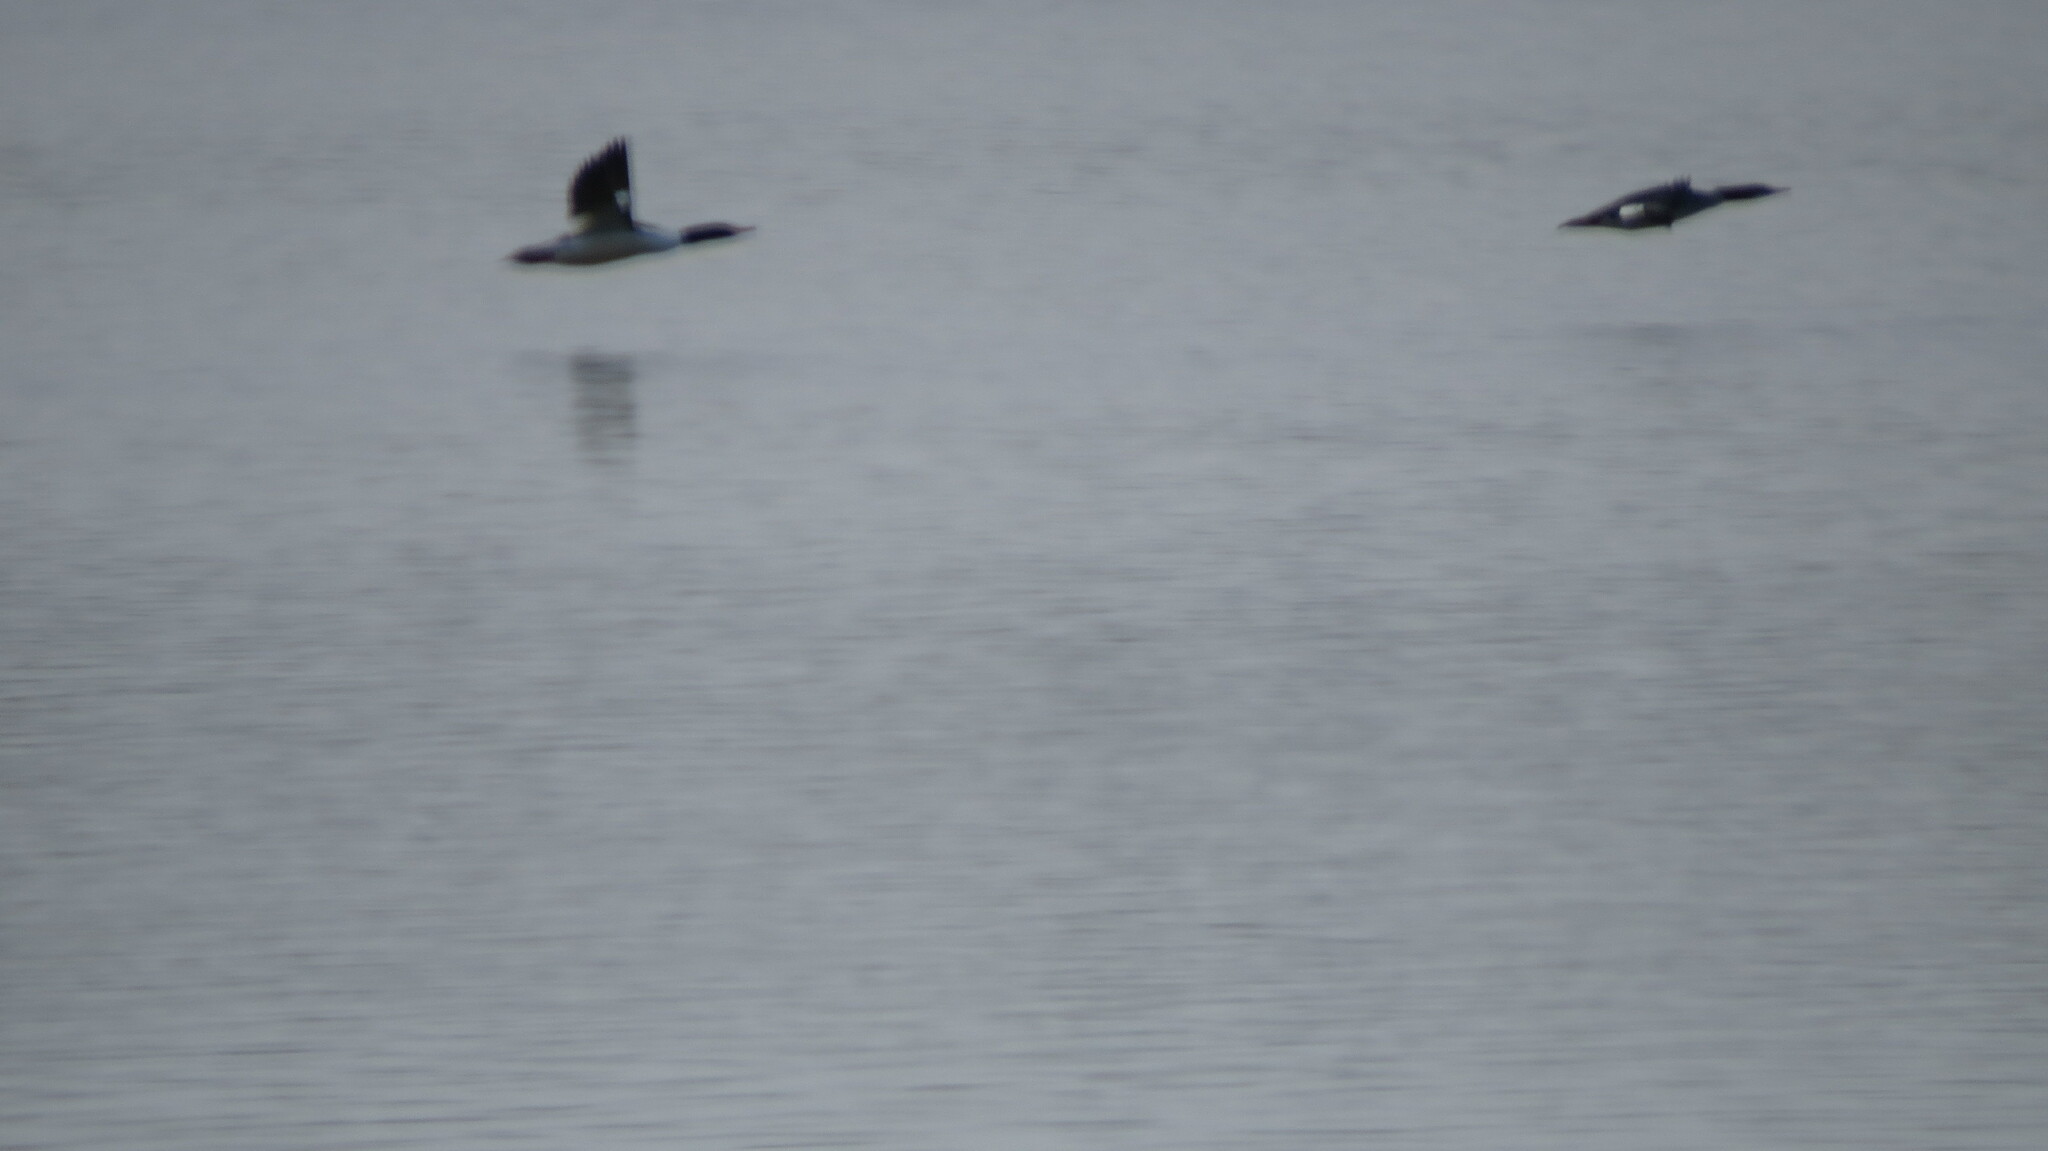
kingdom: Animalia
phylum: Chordata
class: Aves
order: Anseriformes
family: Anatidae
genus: Mergus
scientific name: Mergus merganser
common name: Common merganser
